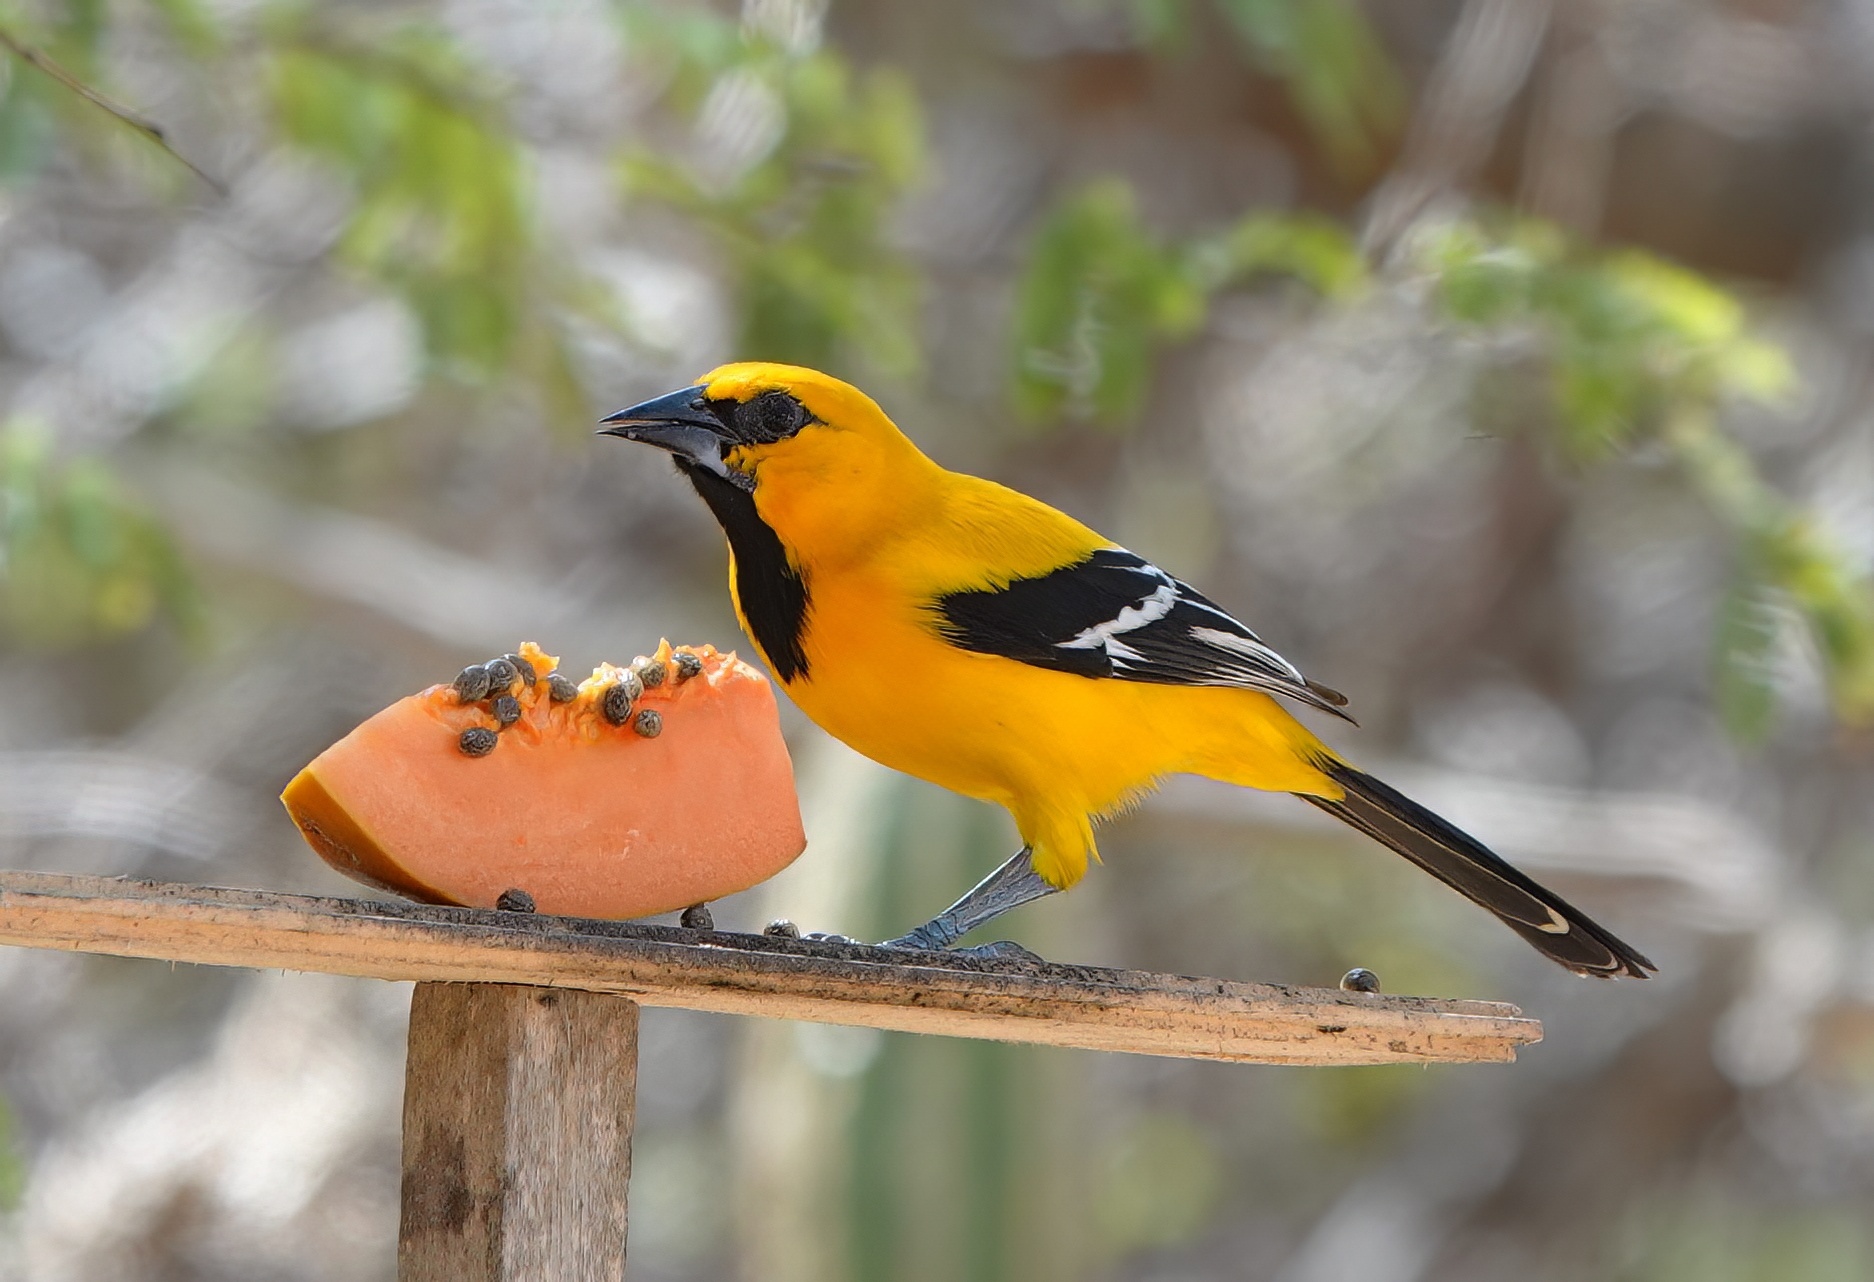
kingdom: Animalia
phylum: Chordata
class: Aves
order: Passeriformes
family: Icteridae
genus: Icterus
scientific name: Icterus nigrogularis
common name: Yellow oriole
